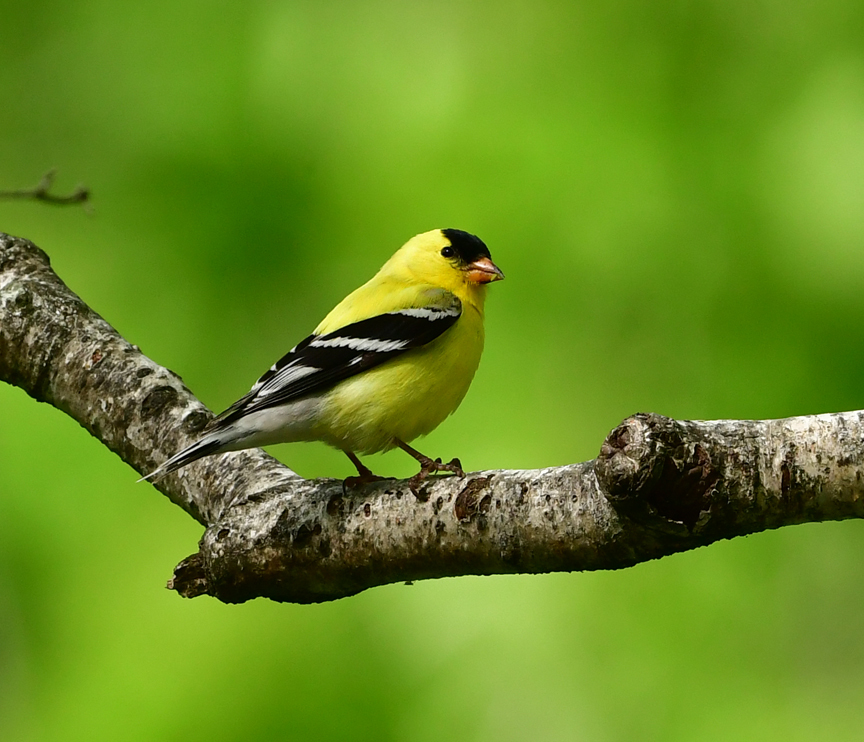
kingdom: Animalia
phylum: Chordata
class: Aves
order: Passeriformes
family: Fringillidae
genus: Spinus
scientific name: Spinus tristis
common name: American goldfinch
